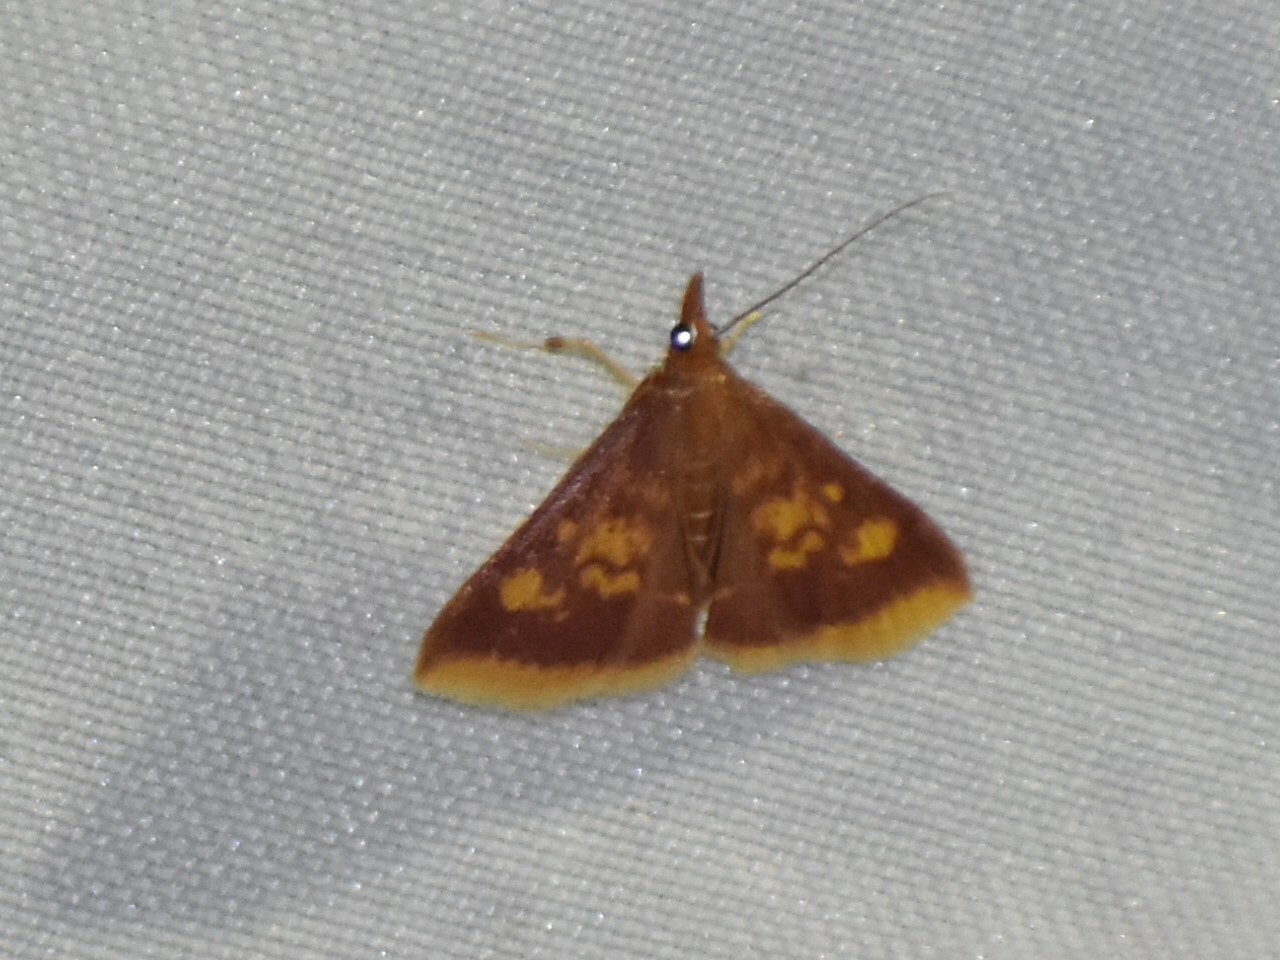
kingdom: Animalia
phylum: Arthropoda
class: Insecta
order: Lepidoptera
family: Crambidae
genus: Pyrausta
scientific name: Pyrausta acrionalis
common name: Mint-loving pyrausta moth
